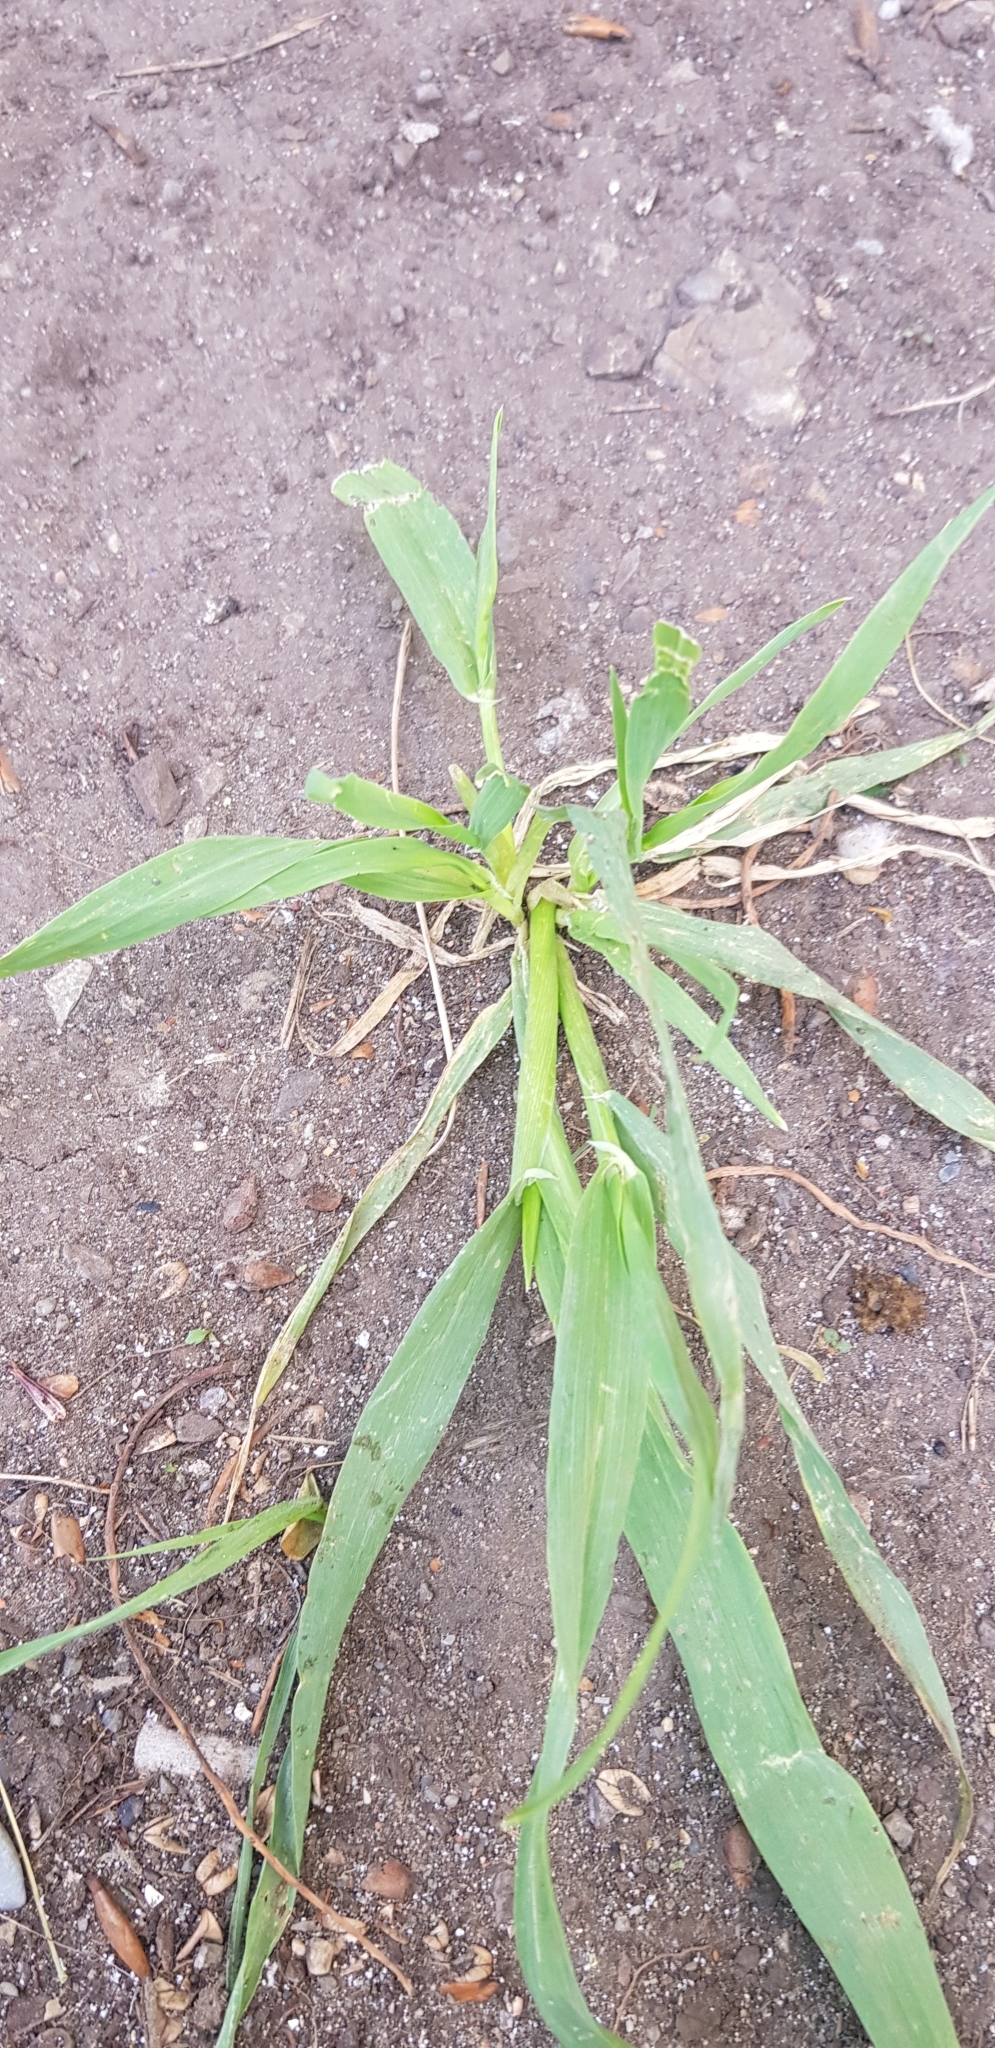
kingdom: Plantae
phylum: Tracheophyta
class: Liliopsida
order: Poales
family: Poaceae
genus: Setaria
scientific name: Setaria viridis
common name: Green bristlegrass
